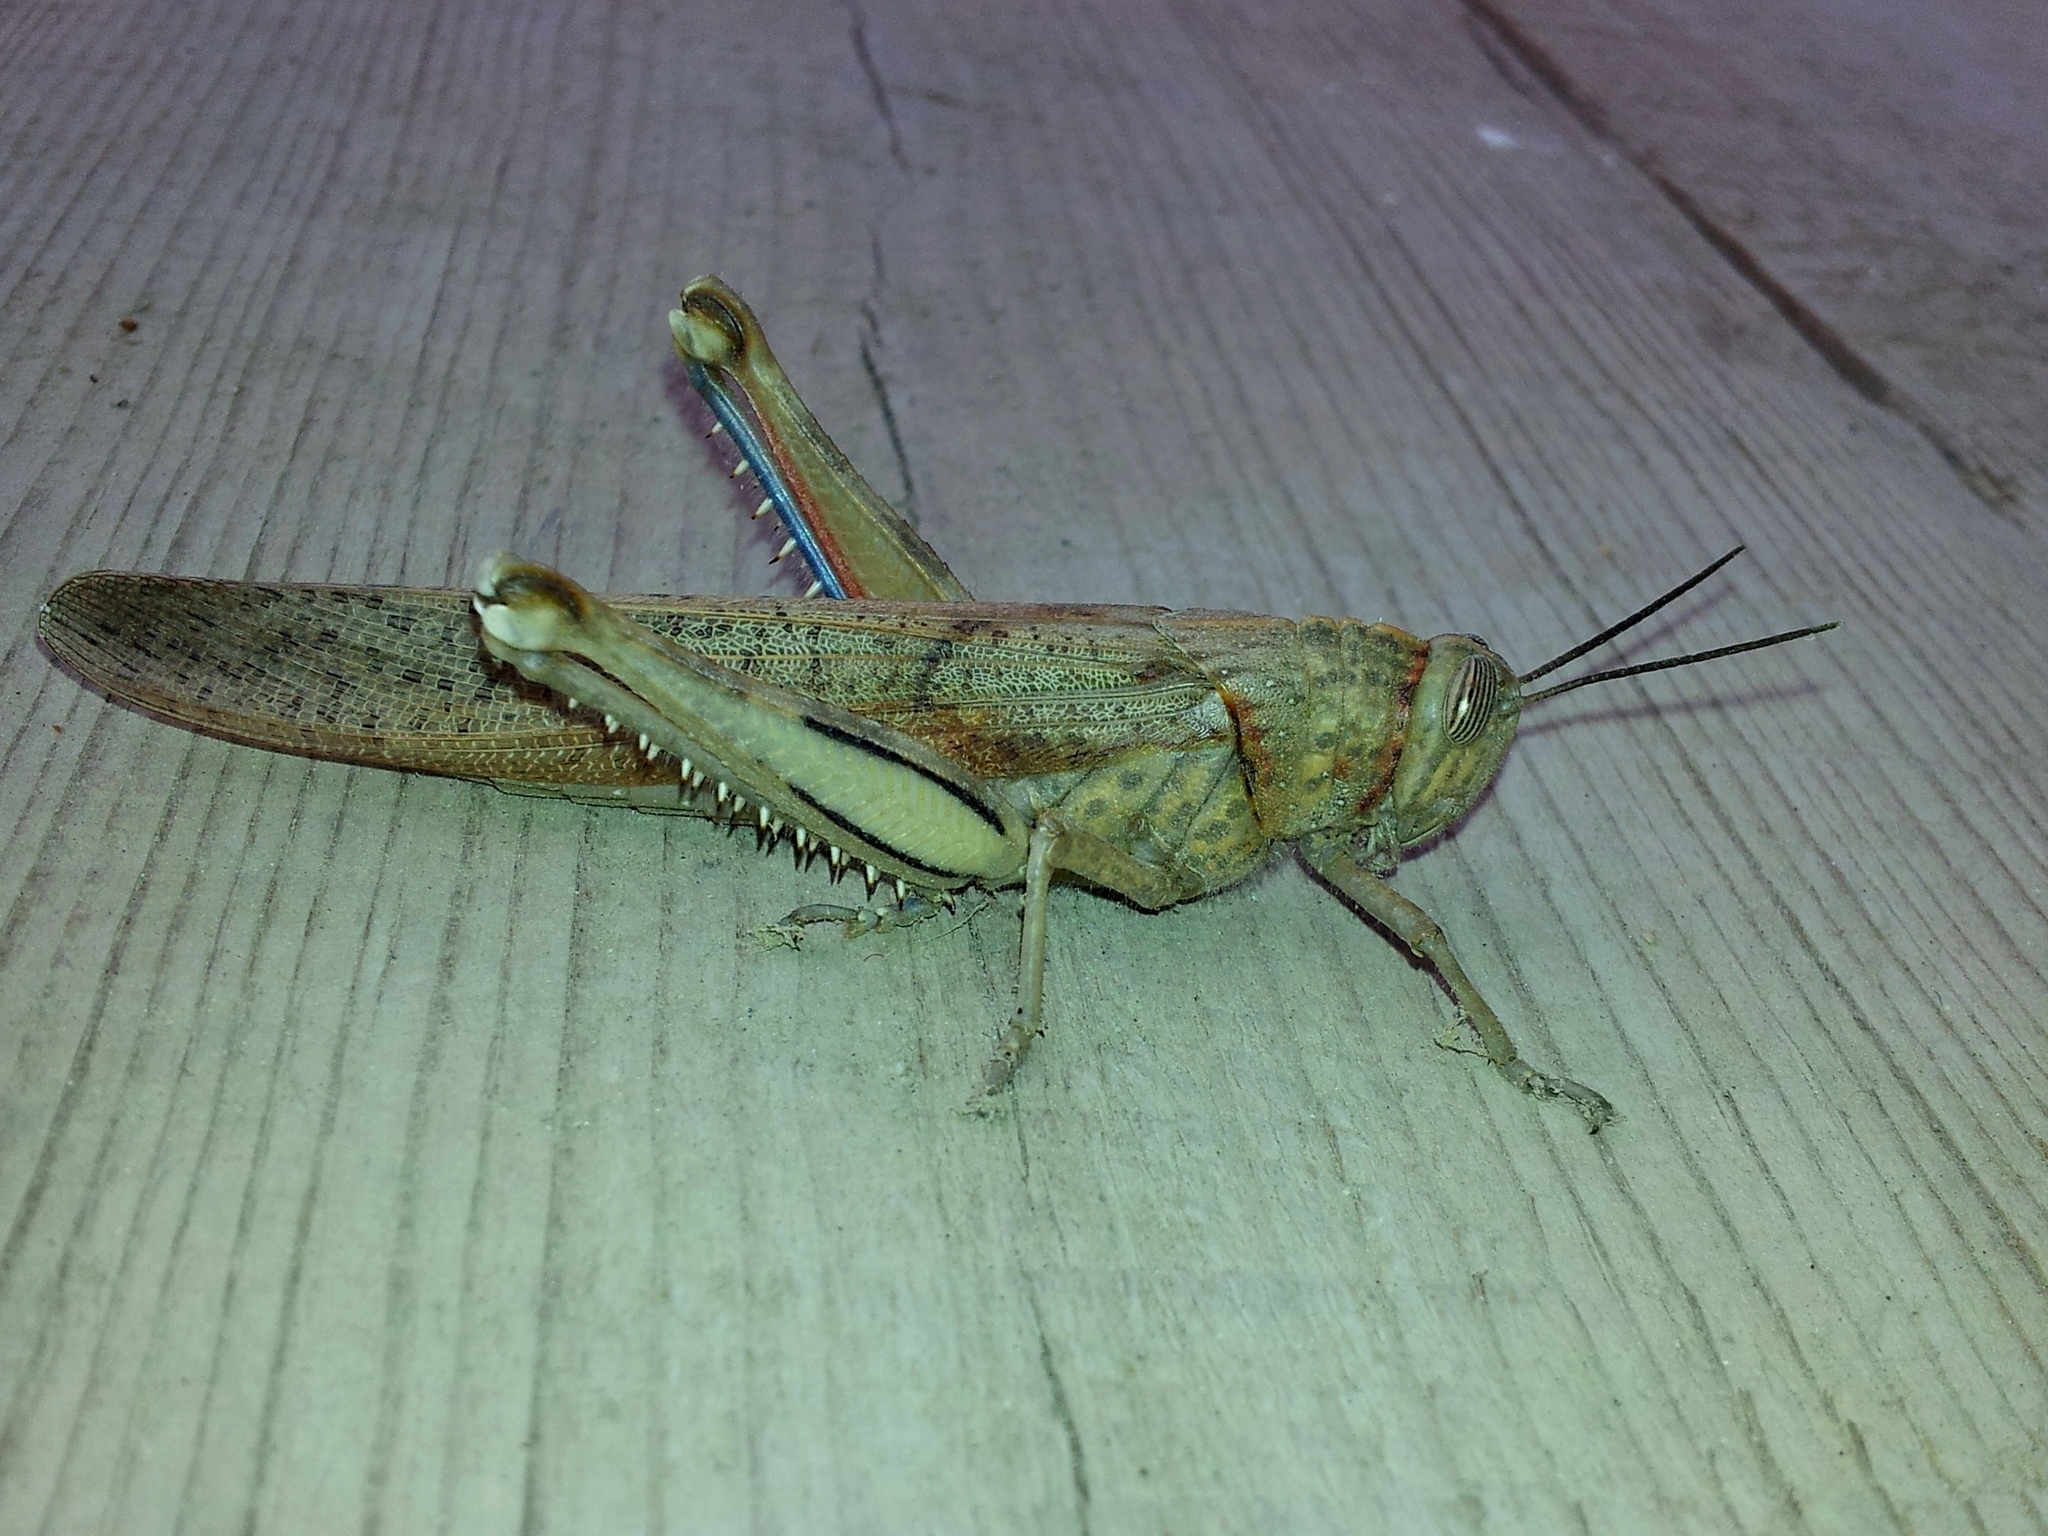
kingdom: Animalia
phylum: Arthropoda
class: Insecta
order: Orthoptera
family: Acrididae
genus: Anacridium
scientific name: Anacridium aegyptium
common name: Egyptian grasshopper
